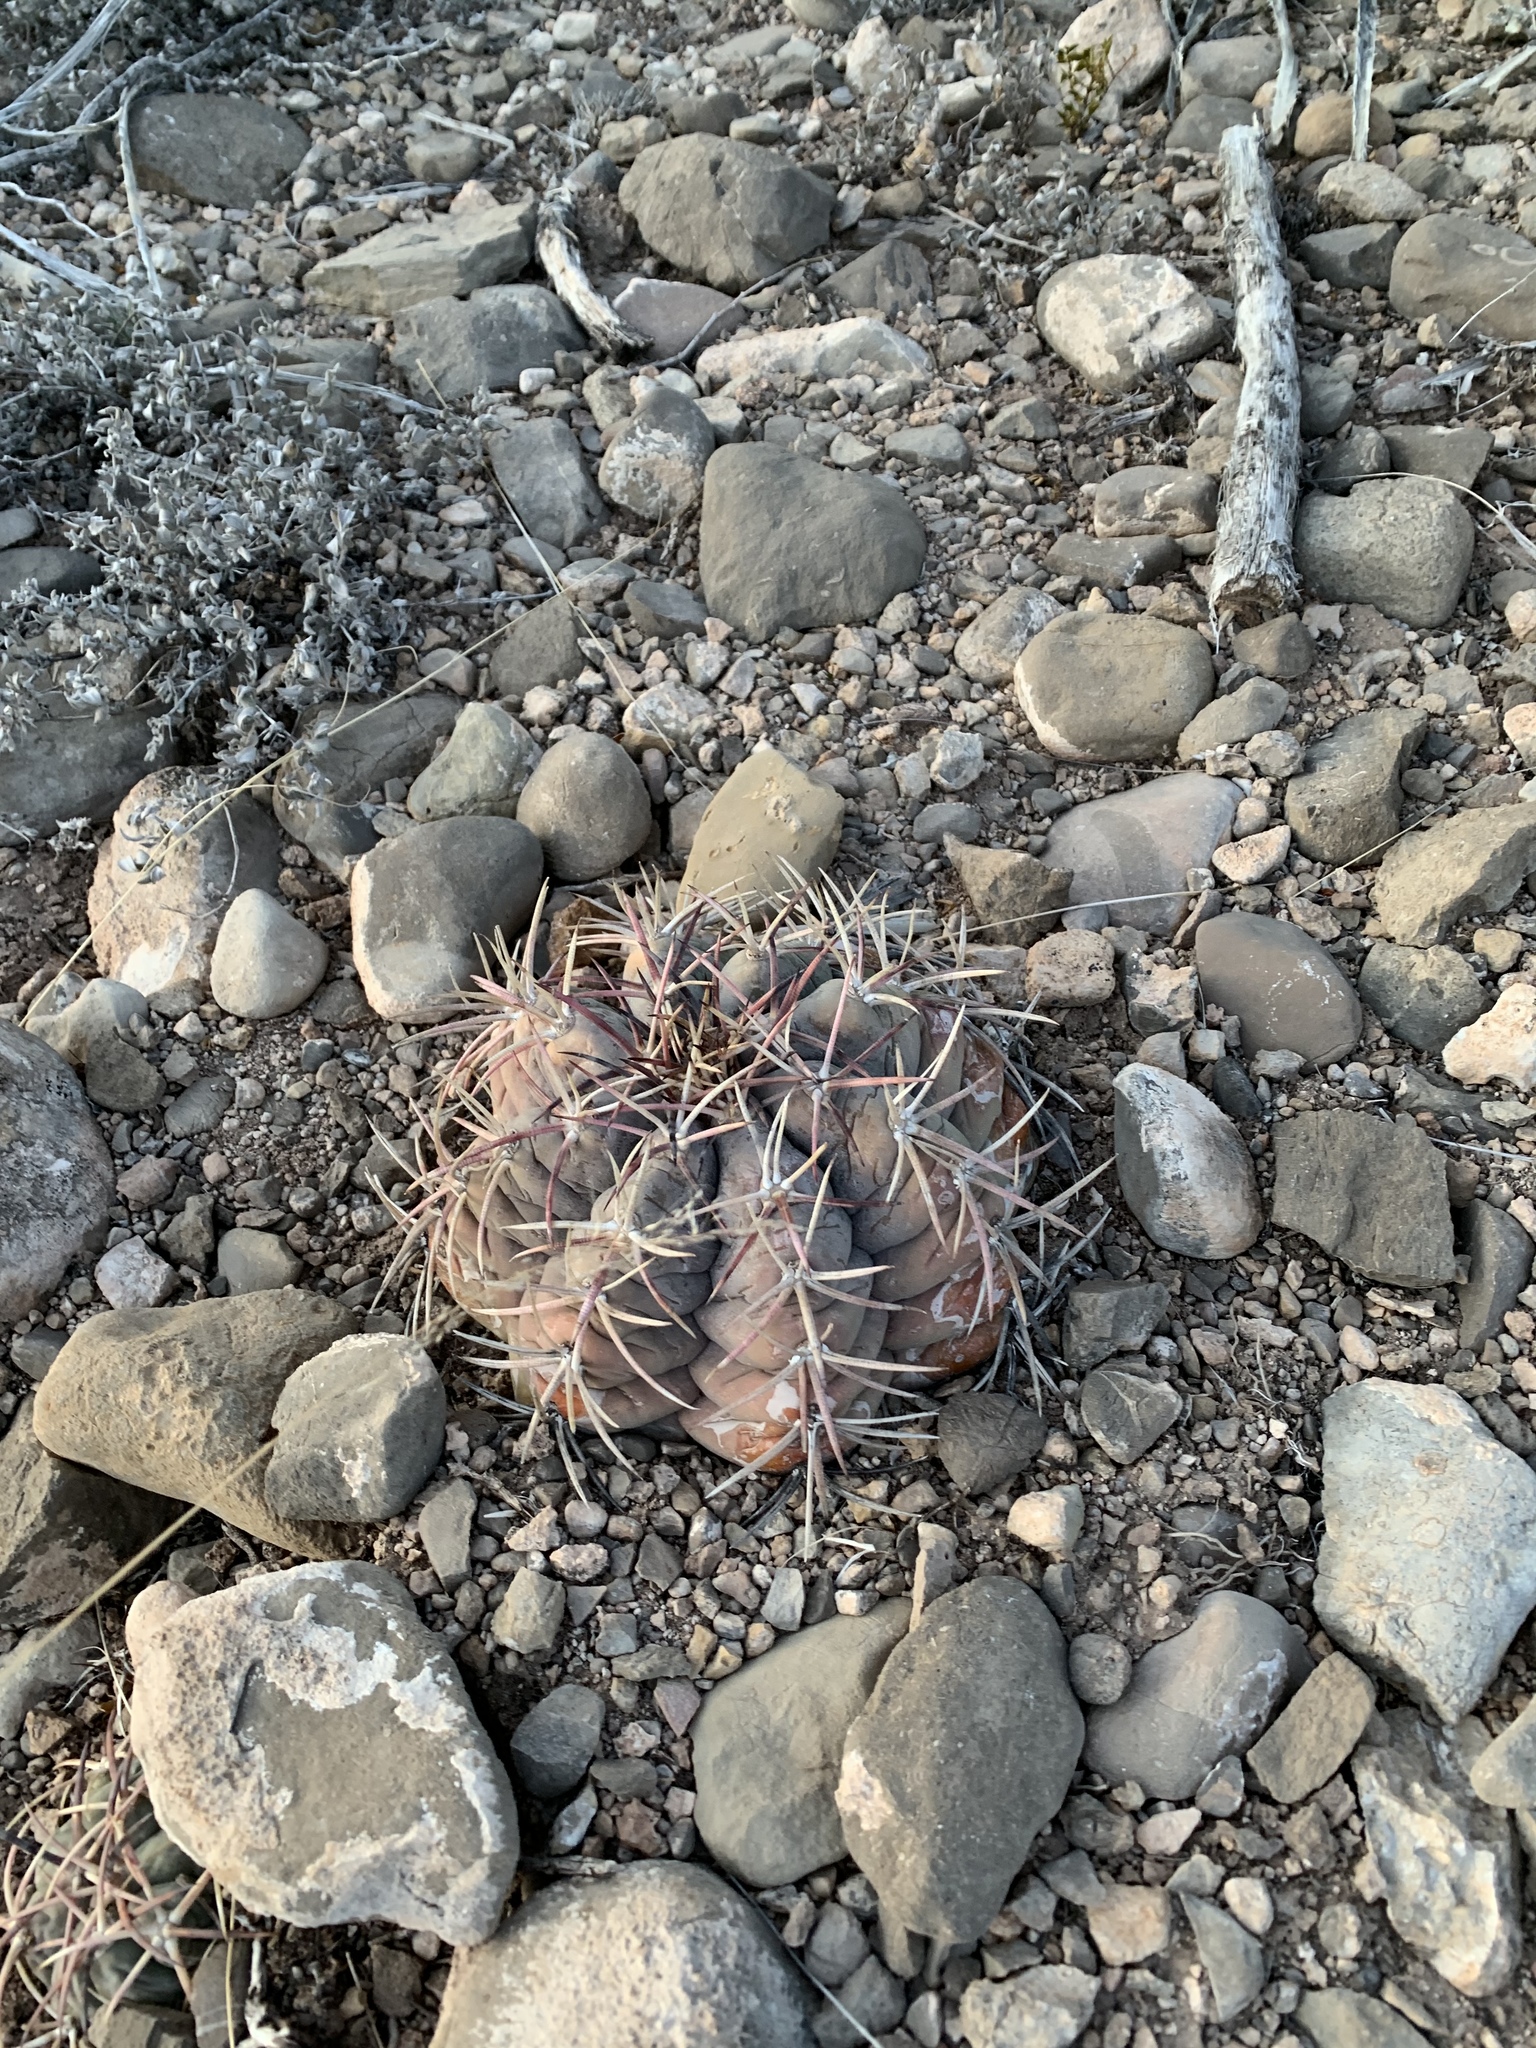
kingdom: Plantae
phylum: Tracheophyta
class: Magnoliopsida
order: Caryophyllales
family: Cactaceae
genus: Echinocactus
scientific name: Echinocactus horizonthalonius
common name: Devilshead
